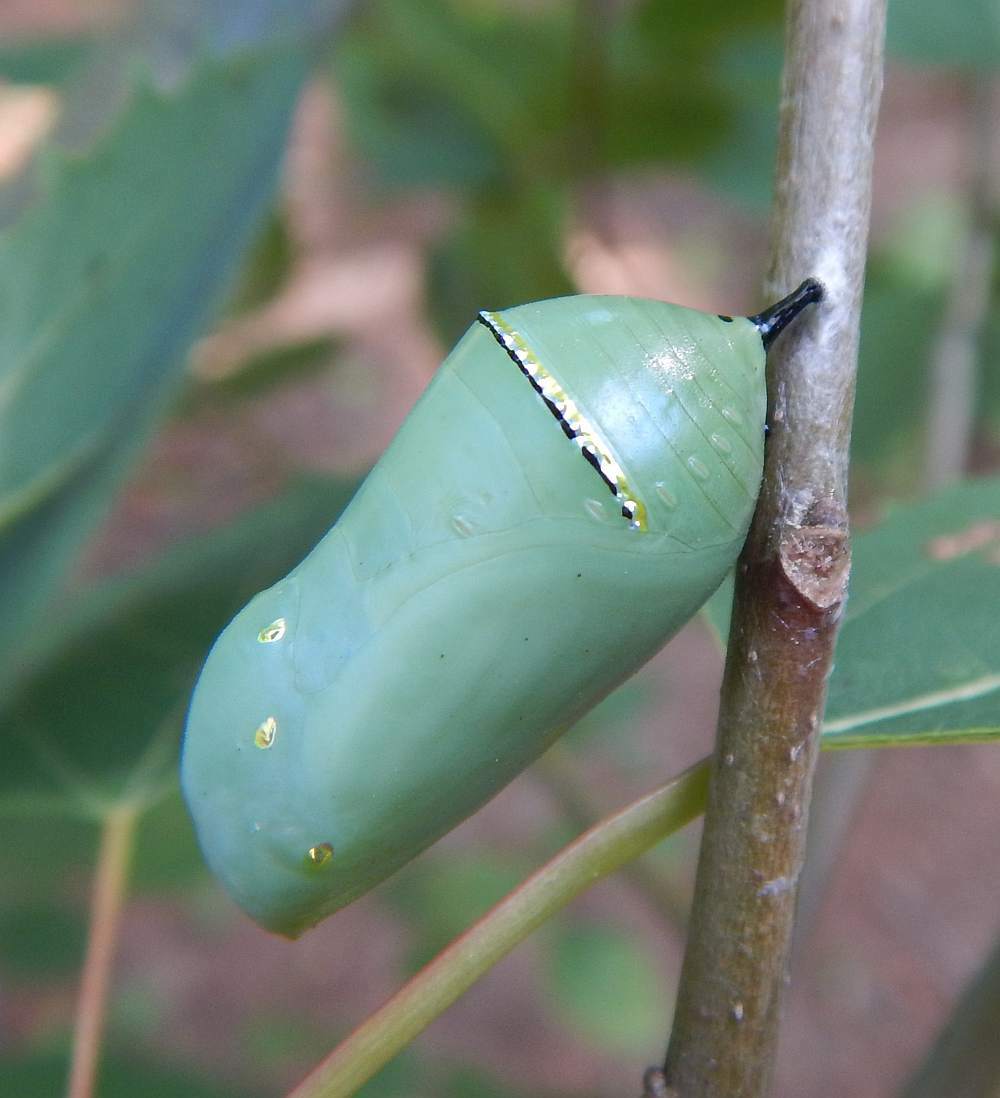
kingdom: Animalia
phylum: Arthropoda
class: Insecta
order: Lepidoptera
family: Nymphalidae
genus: Danaus
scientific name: Danaus plexippus
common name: Monarch
